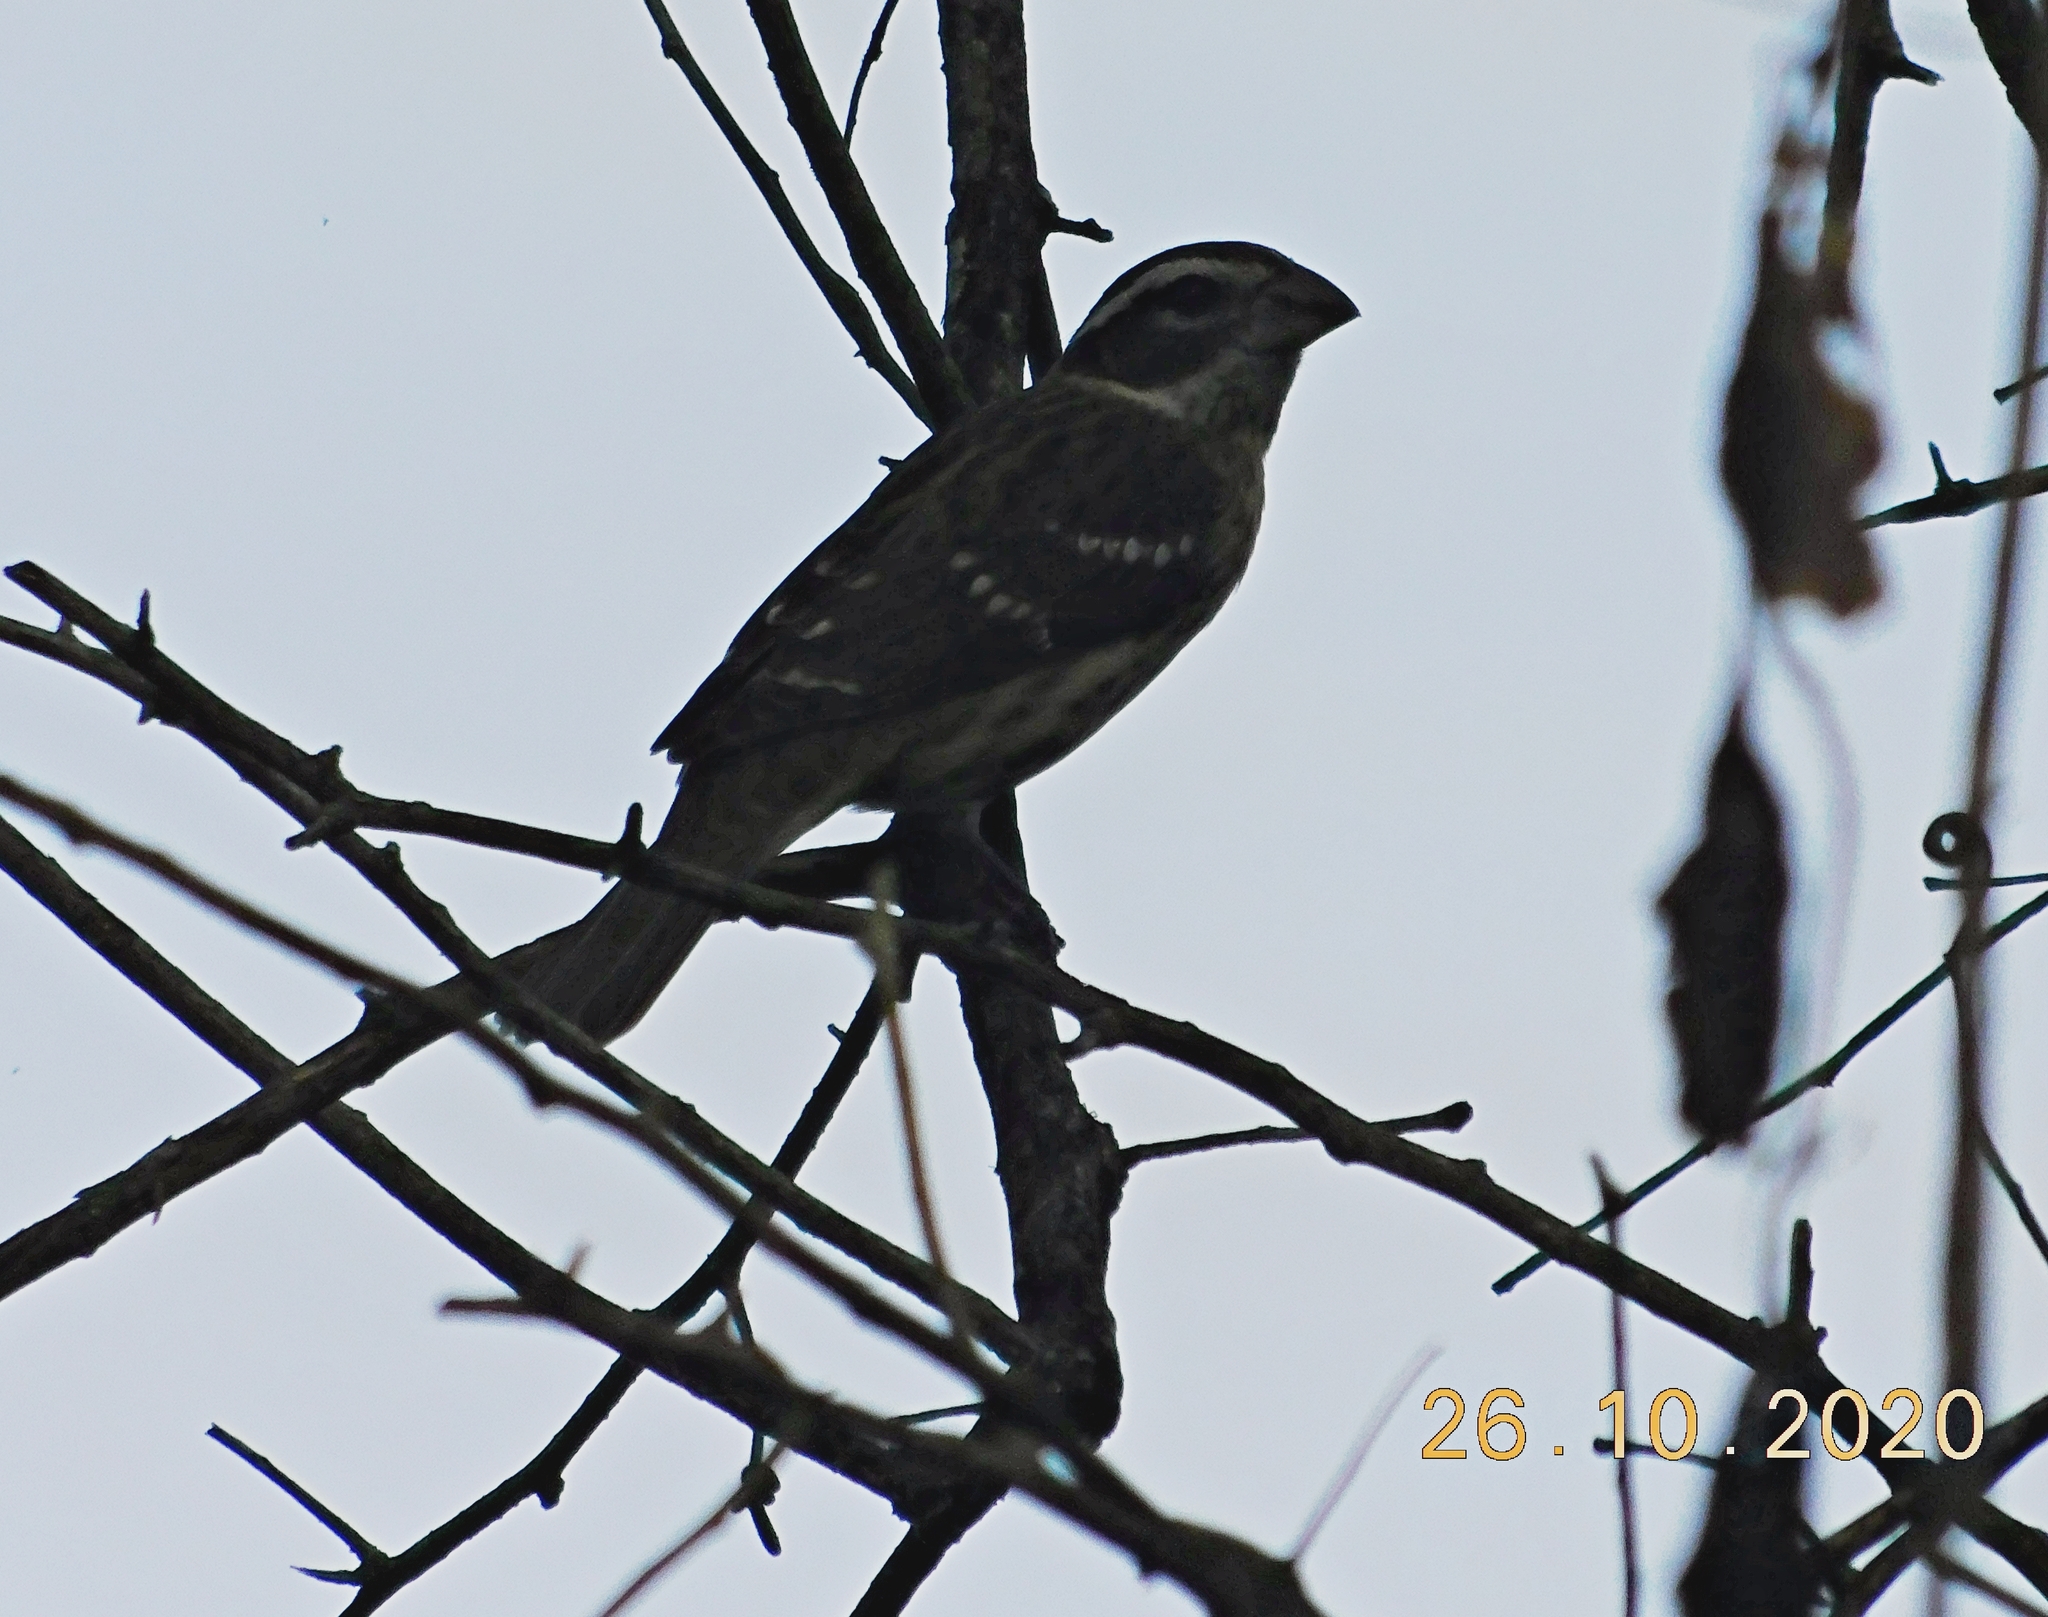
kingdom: Animalia
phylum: Chordata
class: Aves
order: Passeriformes
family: Cardinalidae
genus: Pheucticus
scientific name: Pheucticus ludovicianus
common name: Rose-breasted grosbeak
